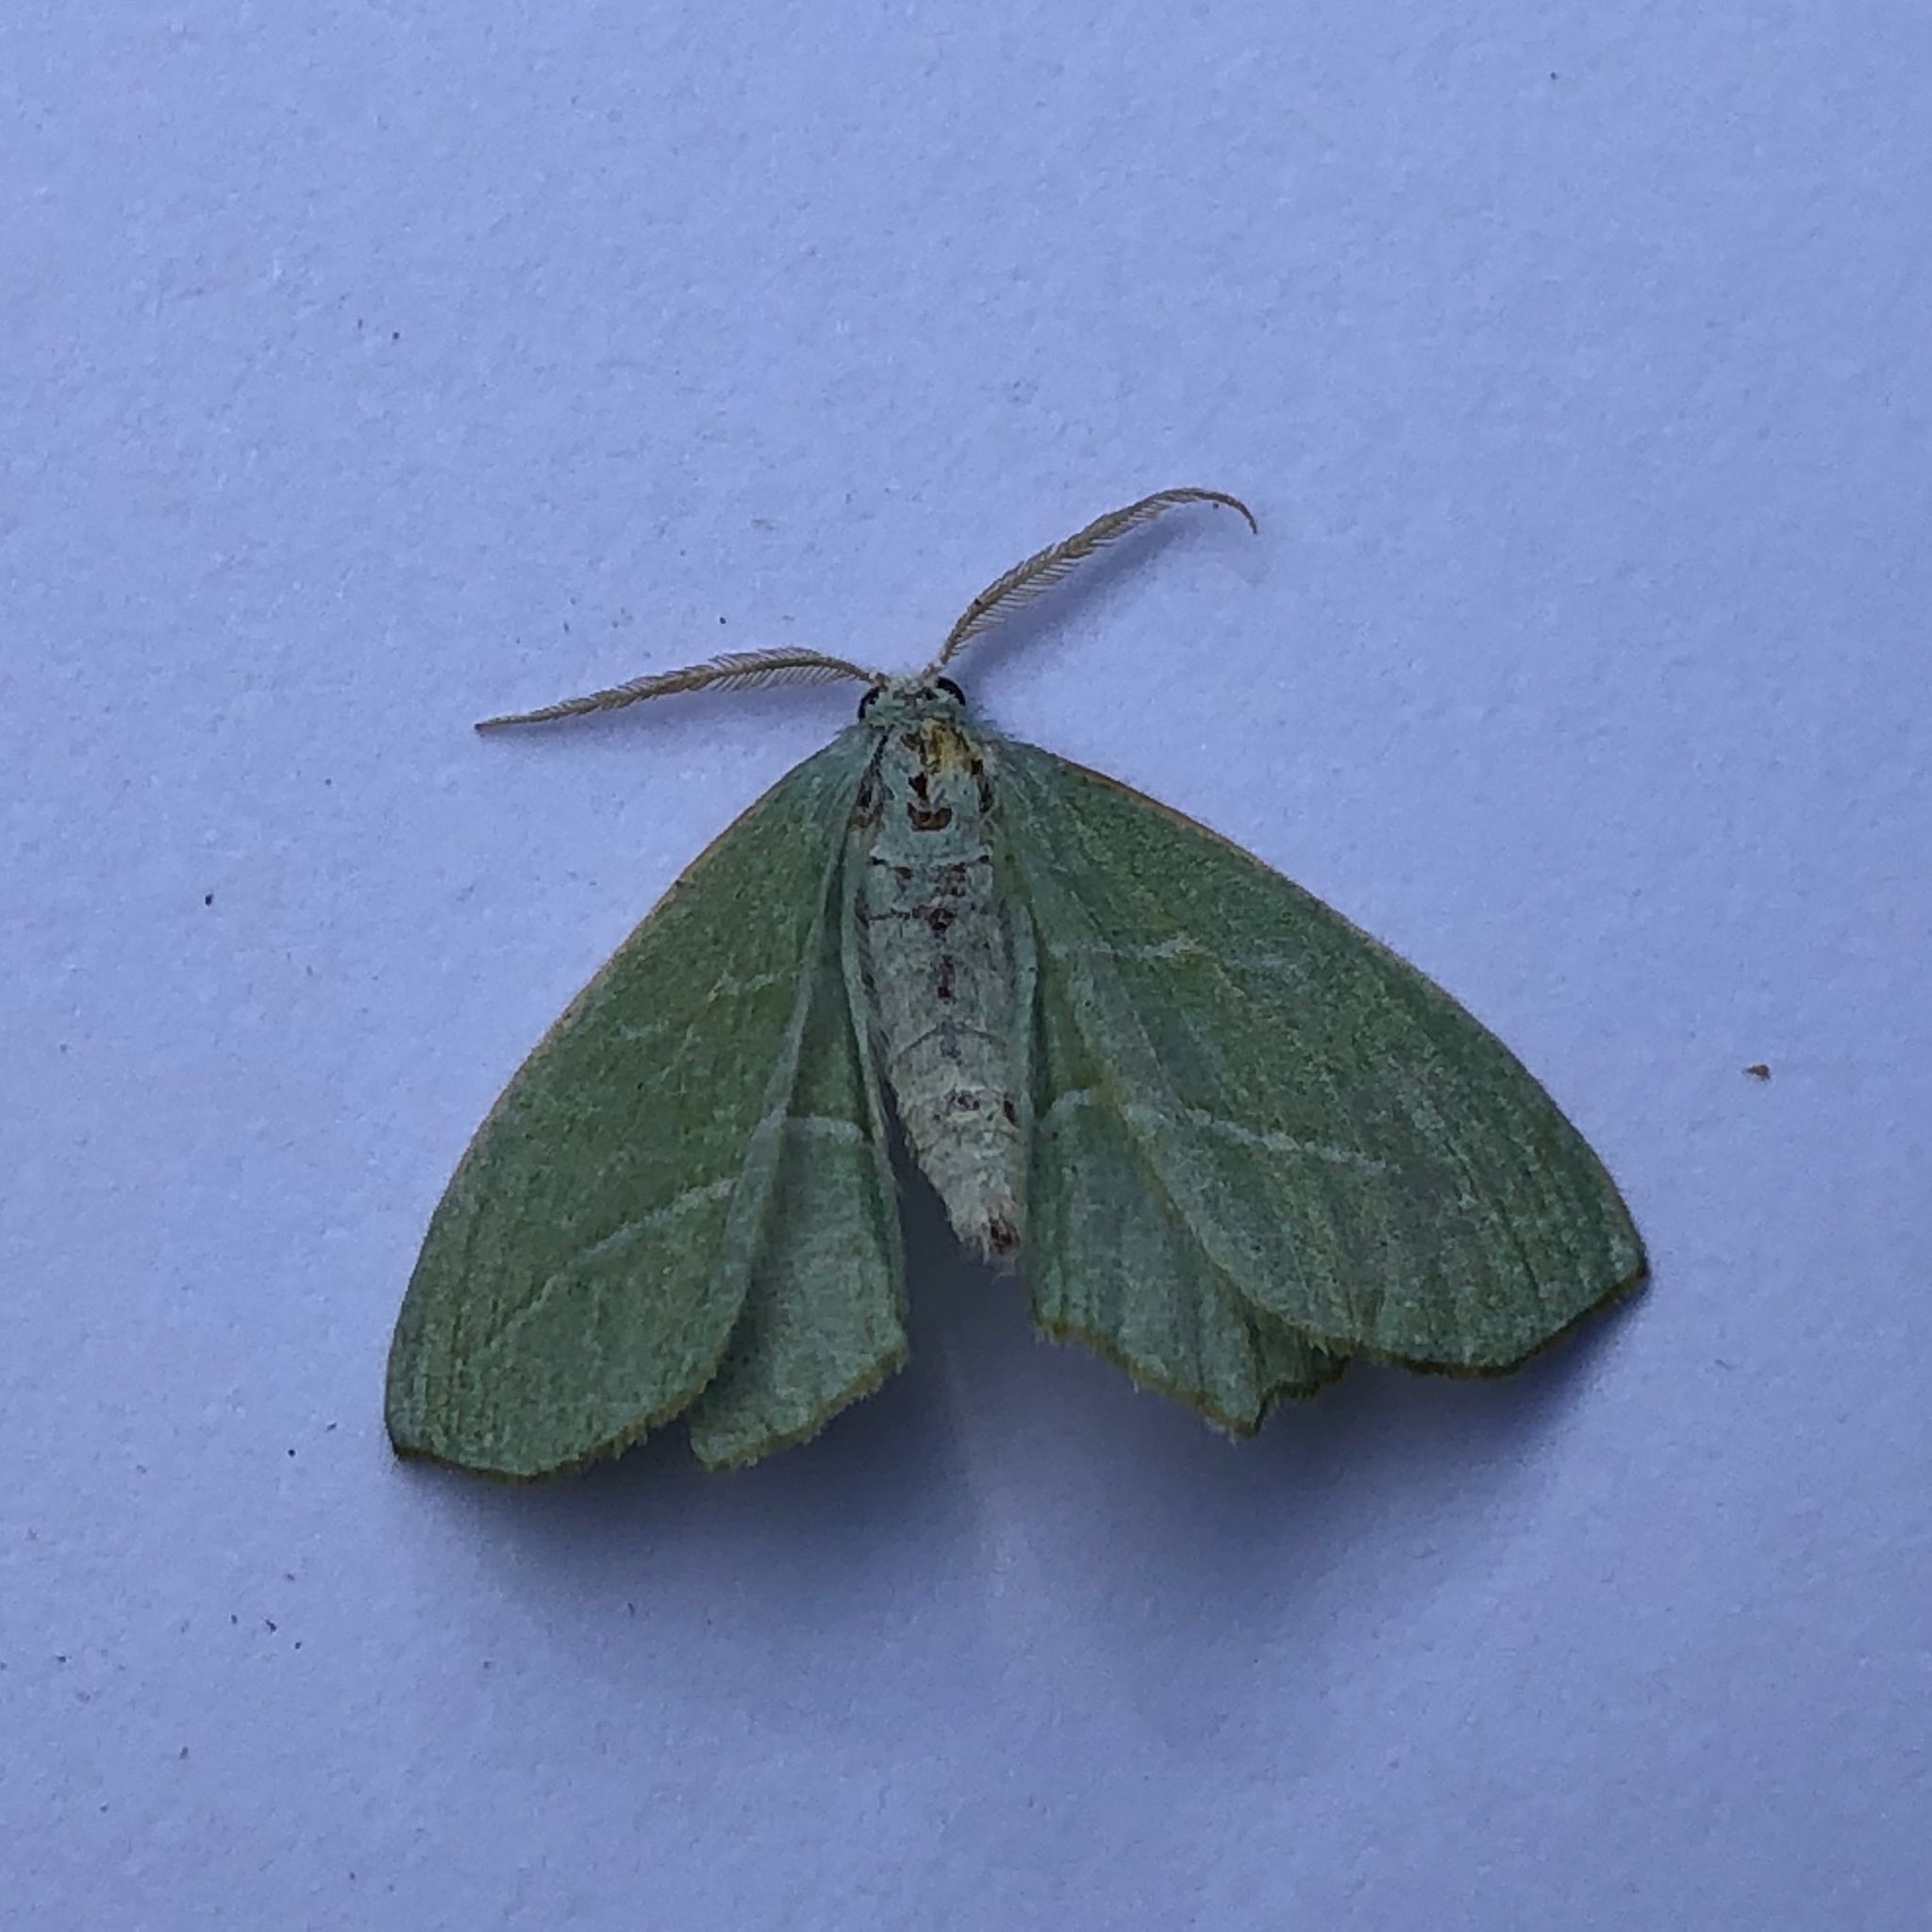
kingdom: Animalia
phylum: Arthropoda
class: Insecta
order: Lepidoptera
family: Geometridae
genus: Campaea
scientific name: Campaea perlata
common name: Fringed looper
